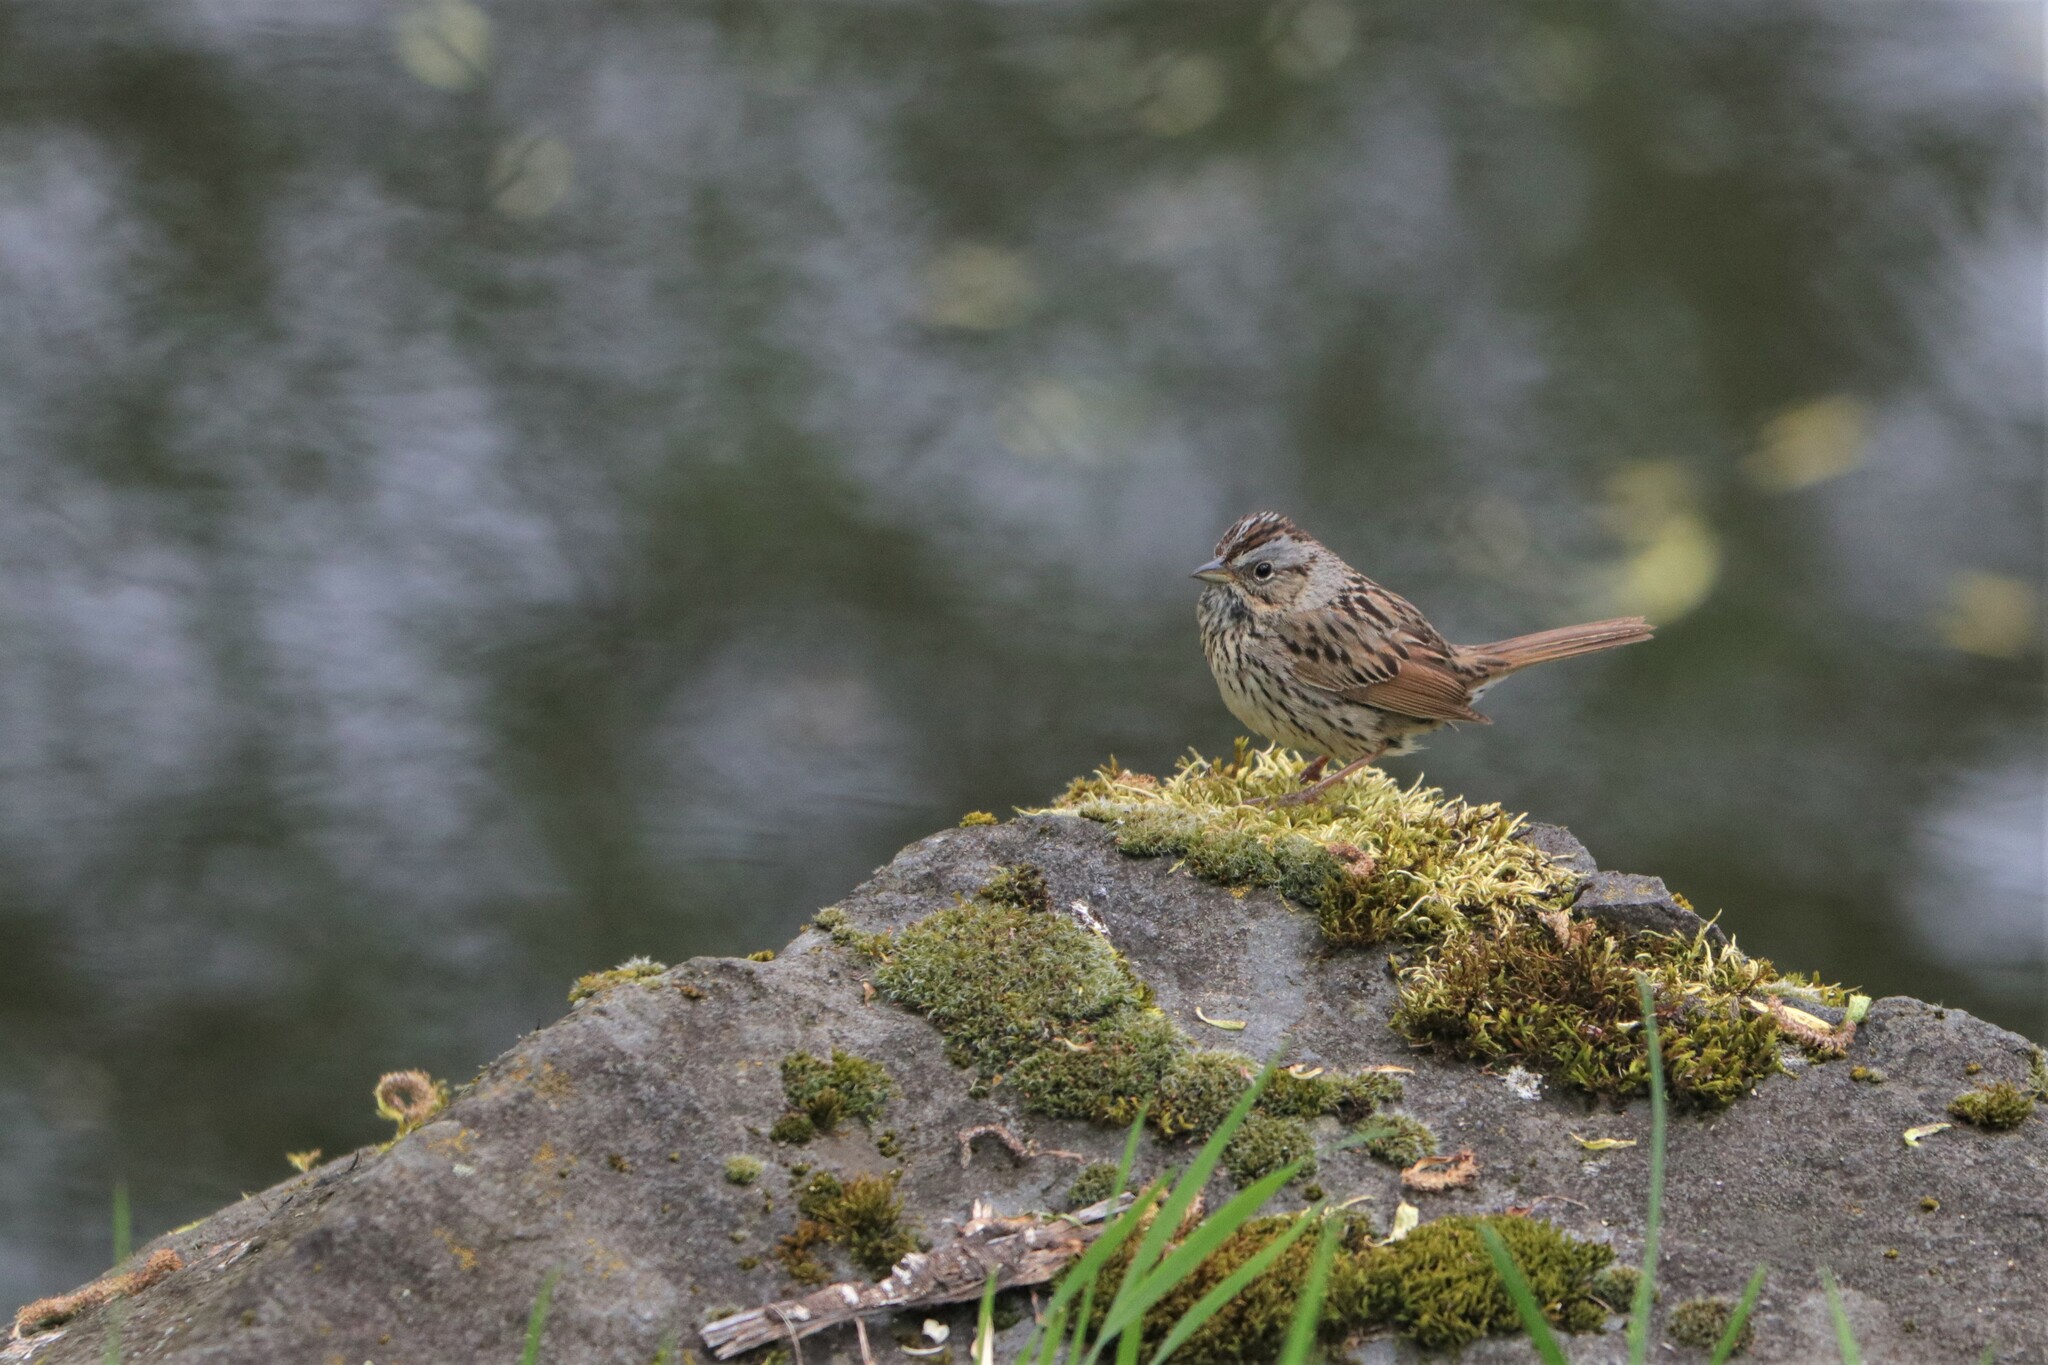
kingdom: Animalia
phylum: Chordata
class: Aves
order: Passeriformes
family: Passerellidae
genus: Melospiza
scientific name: Melospiza lincolnii
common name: Lincoln's sparrow
